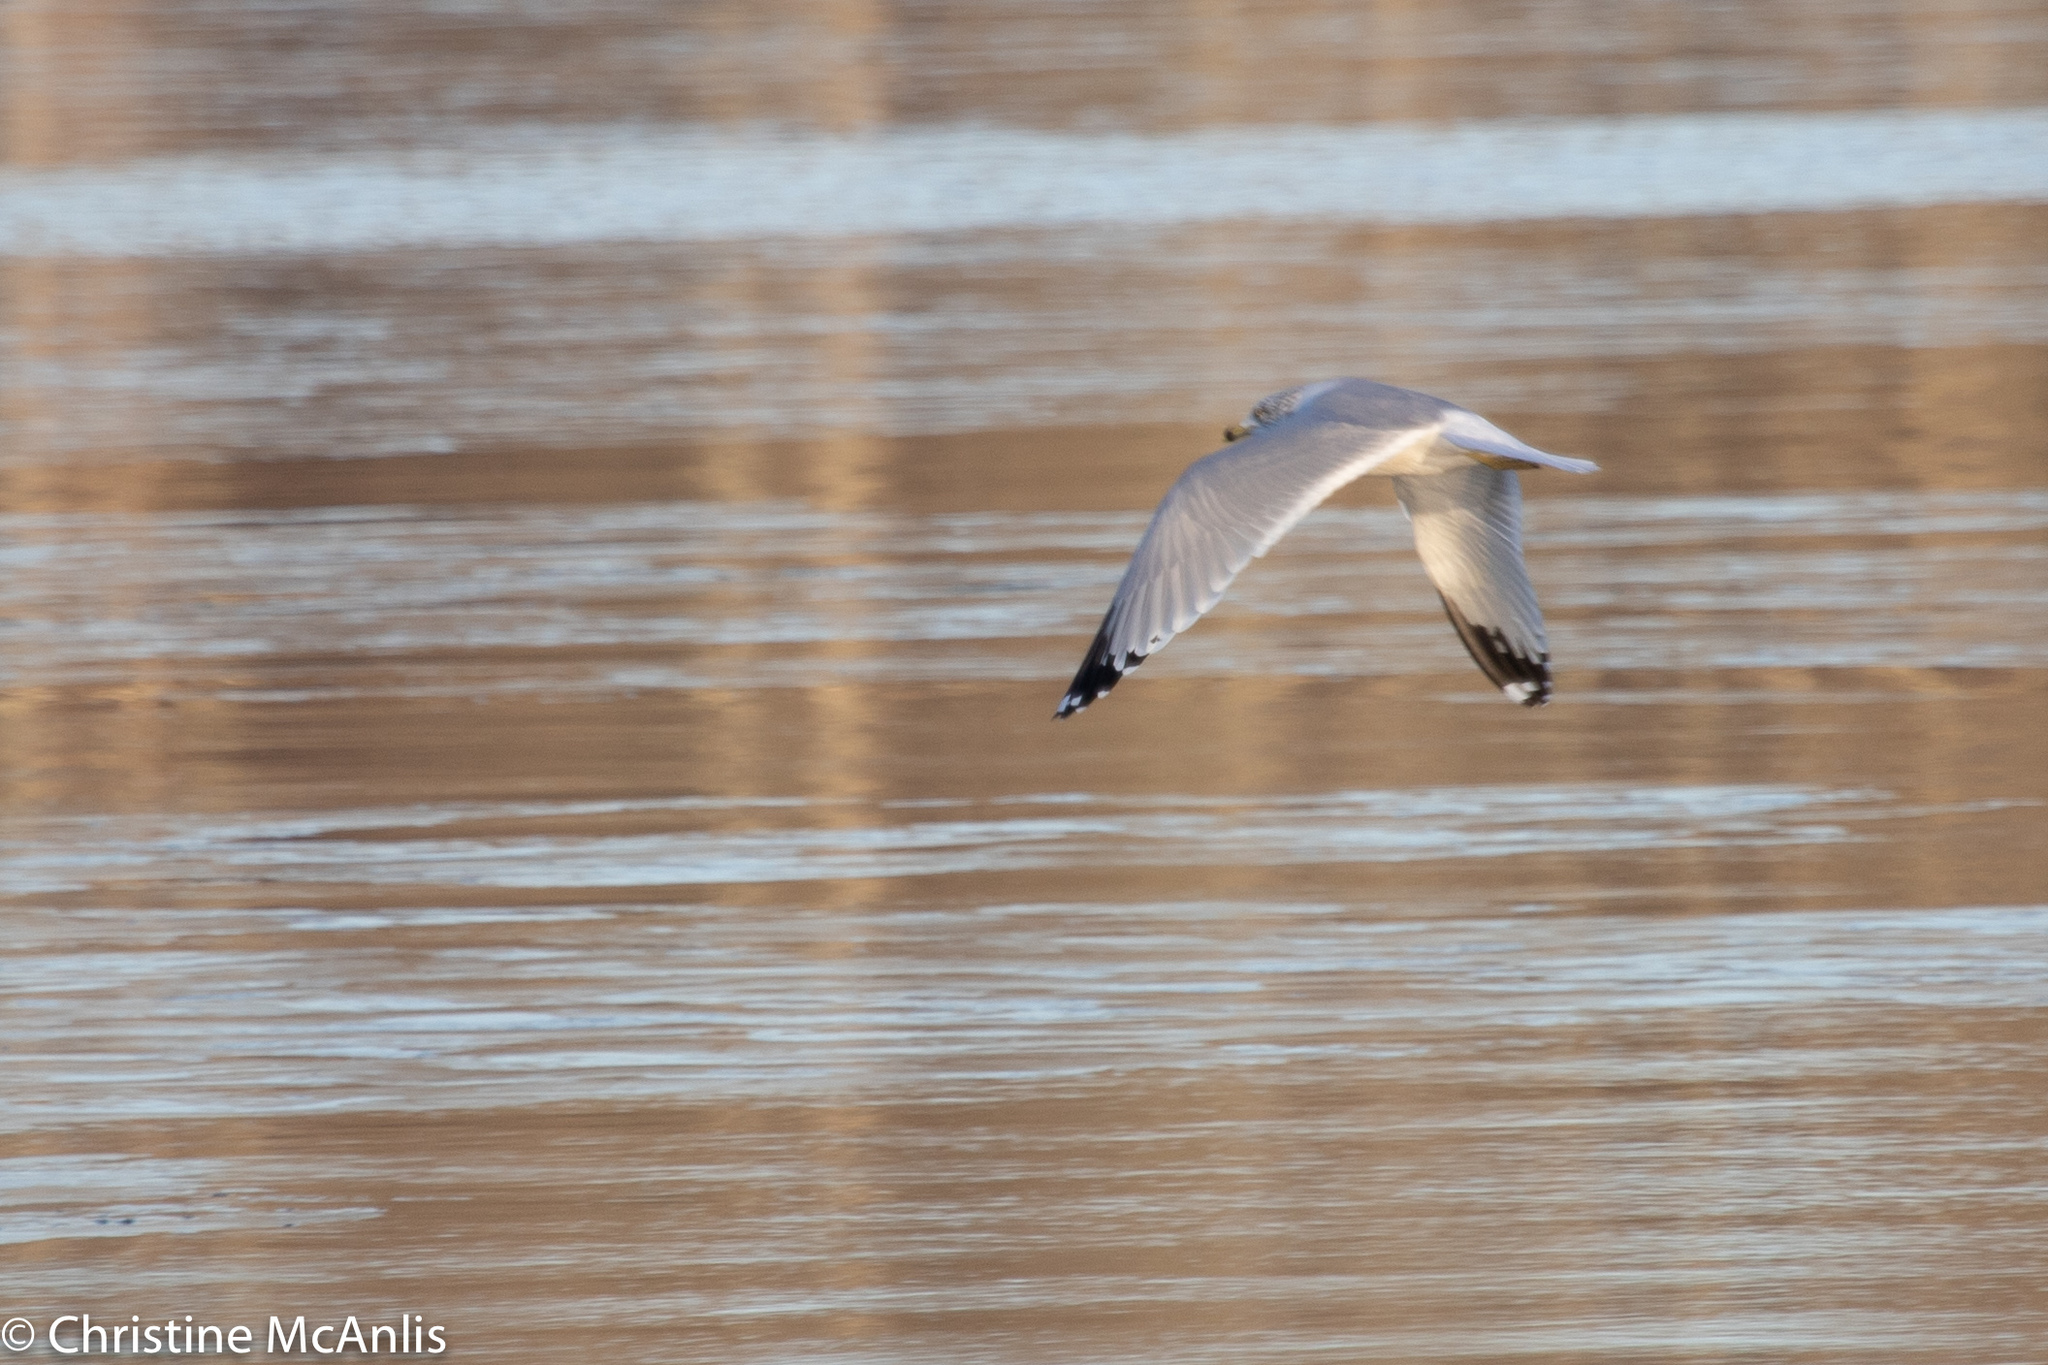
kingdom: Animalia
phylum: Chordata
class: Aves
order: Charadriiformes
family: Laridae
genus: Larus
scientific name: Larus delawarensis
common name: Ring-billed gull
